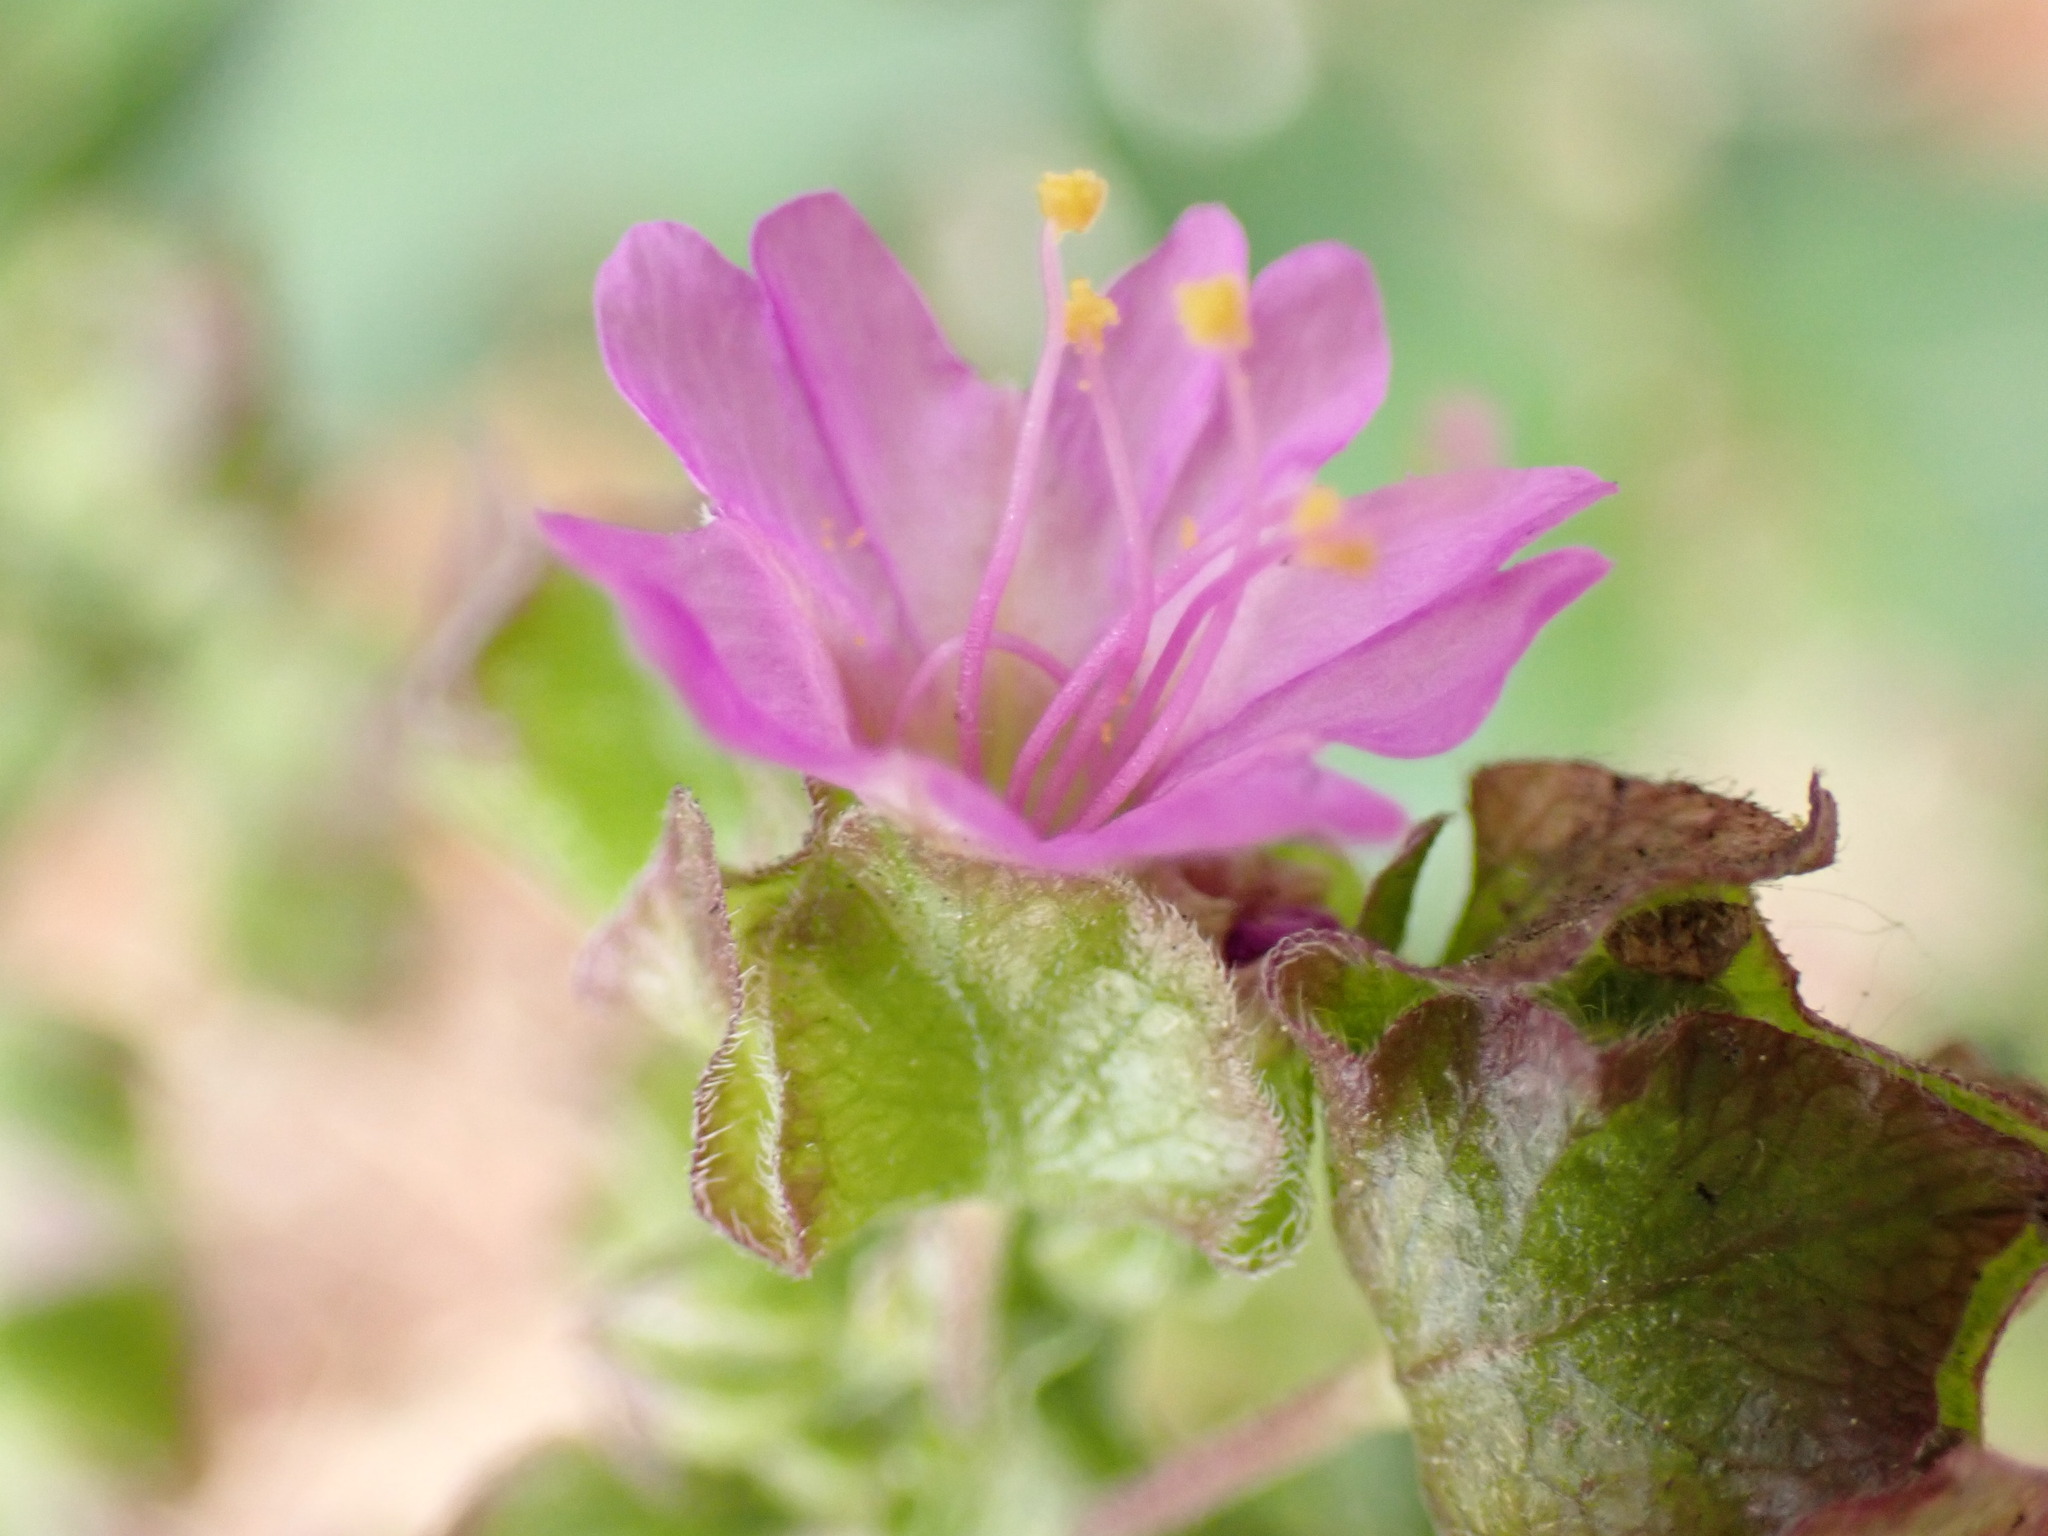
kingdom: Plantae
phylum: Tracheophyta
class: Magnoliopsida
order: Caryophyllales
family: Nyctaginaceae
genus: Mirabilis
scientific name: Mirabilis nyctaginea
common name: Umbrella wort
